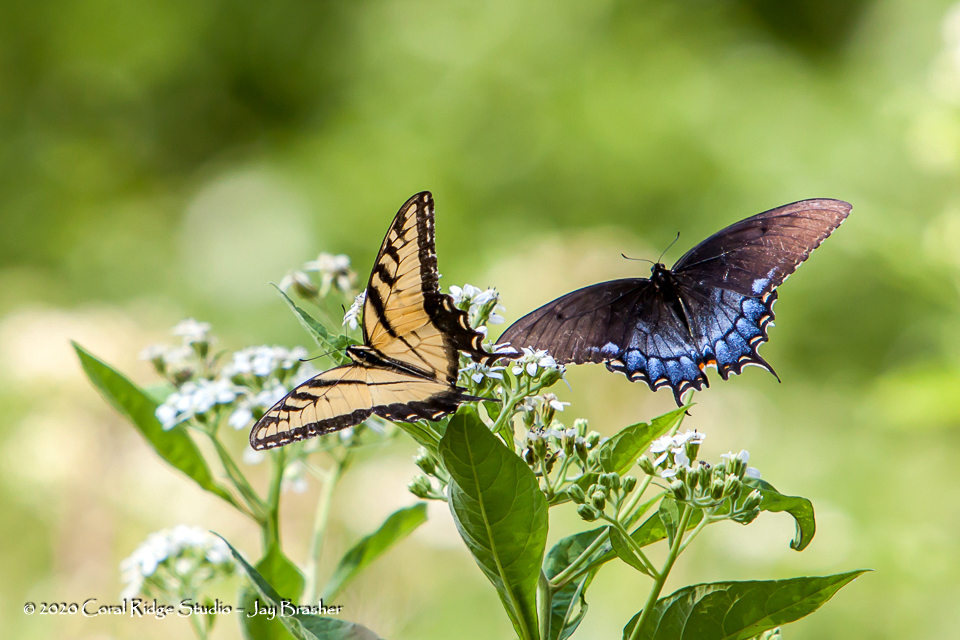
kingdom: Animalia
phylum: Arthropoda
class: Insecta
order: Lepidoptera
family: Papilionidae
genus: Papilio
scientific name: Papilio glaucus
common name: Tiger swallowtail
